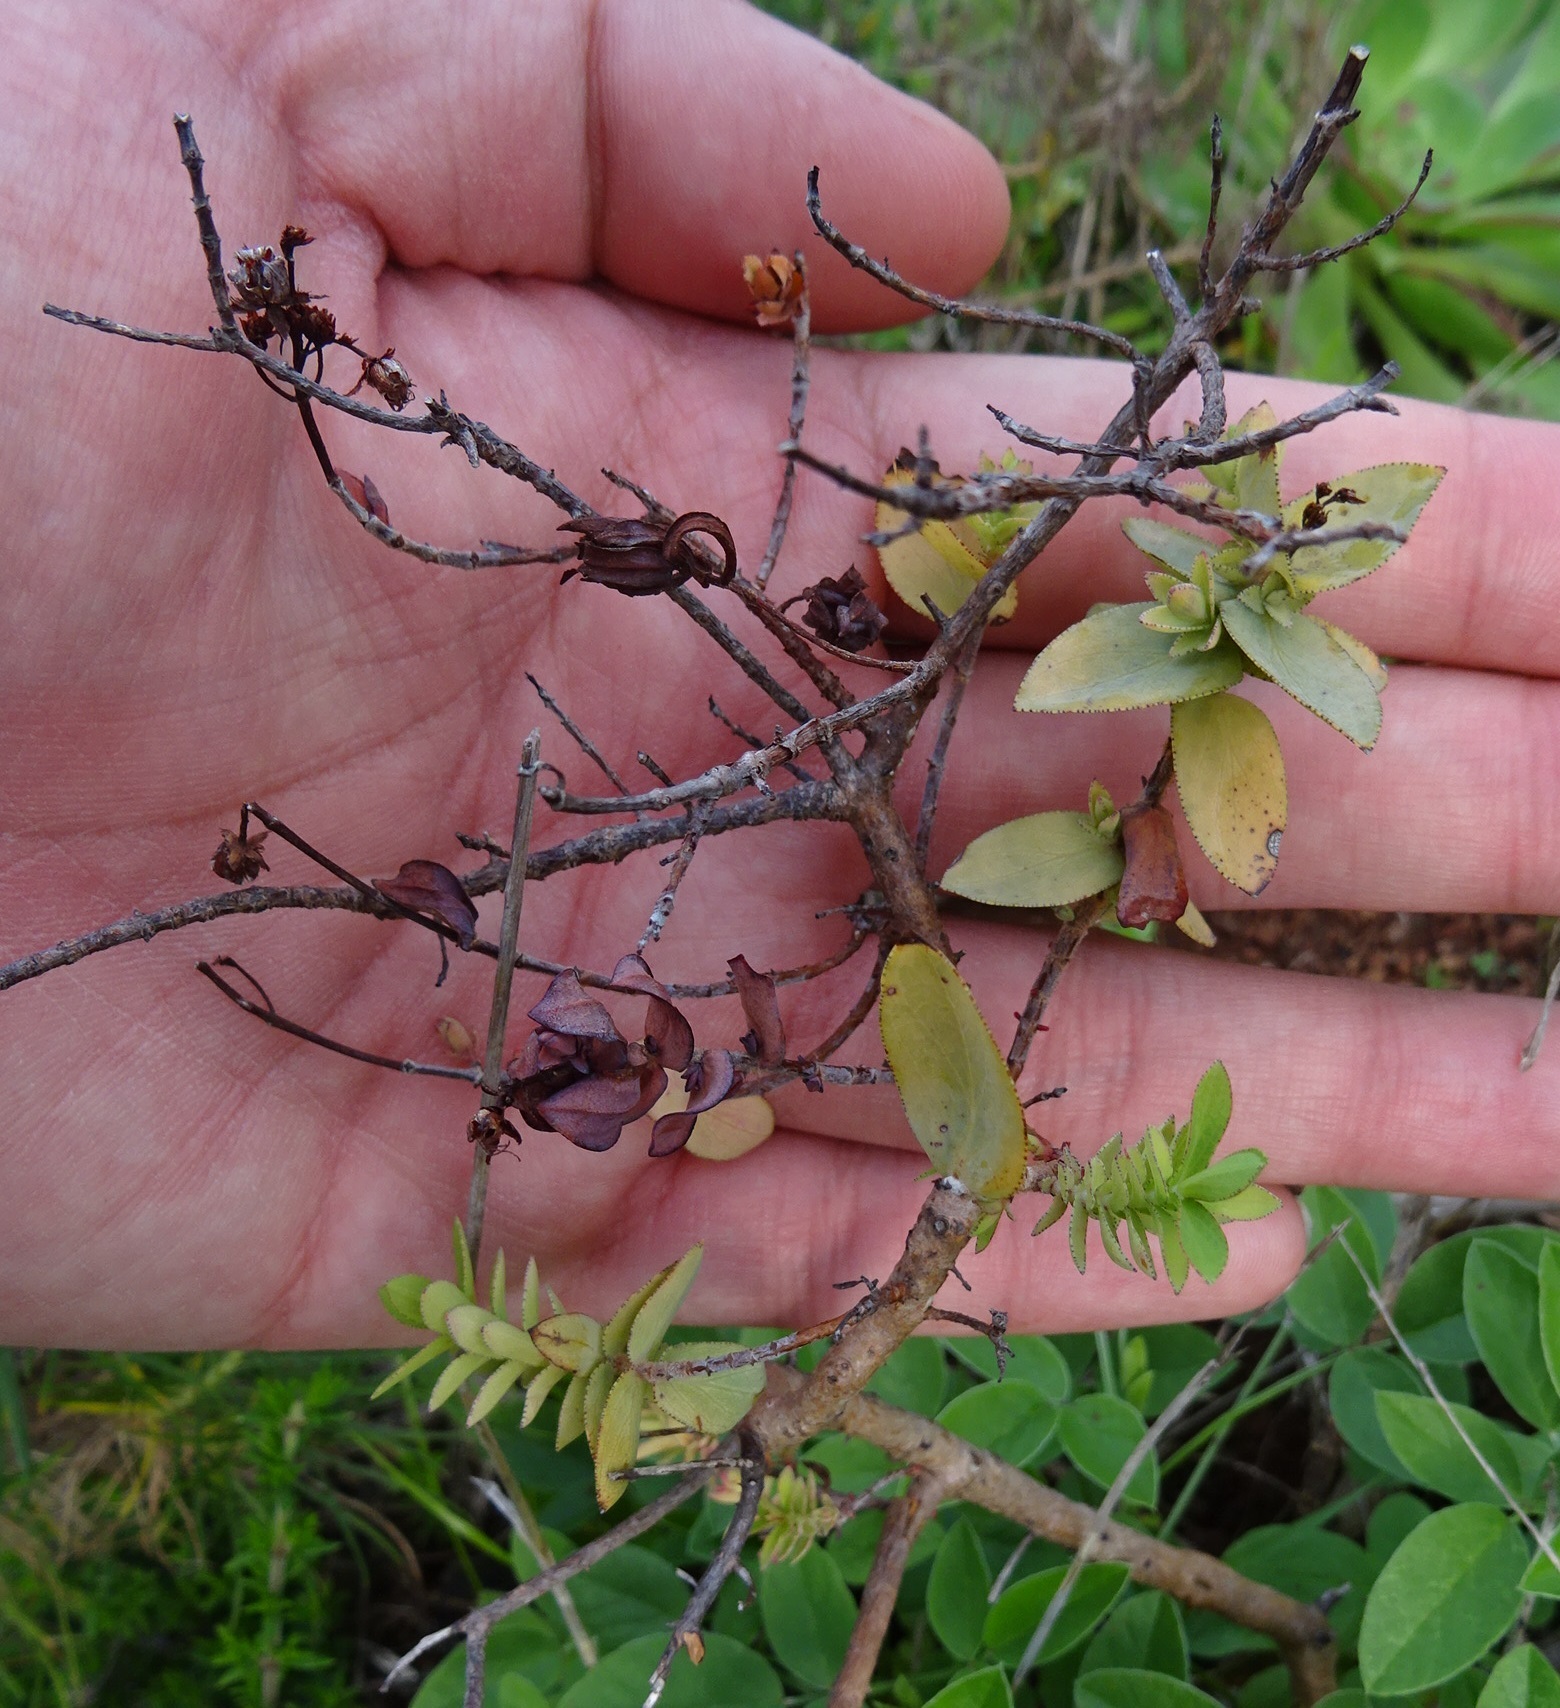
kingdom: Plantae
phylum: Tracheophyta
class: Magnoliopsida
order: Malpighiales
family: Hypericaceae
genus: Hypericum
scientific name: Hypericum reflexum
